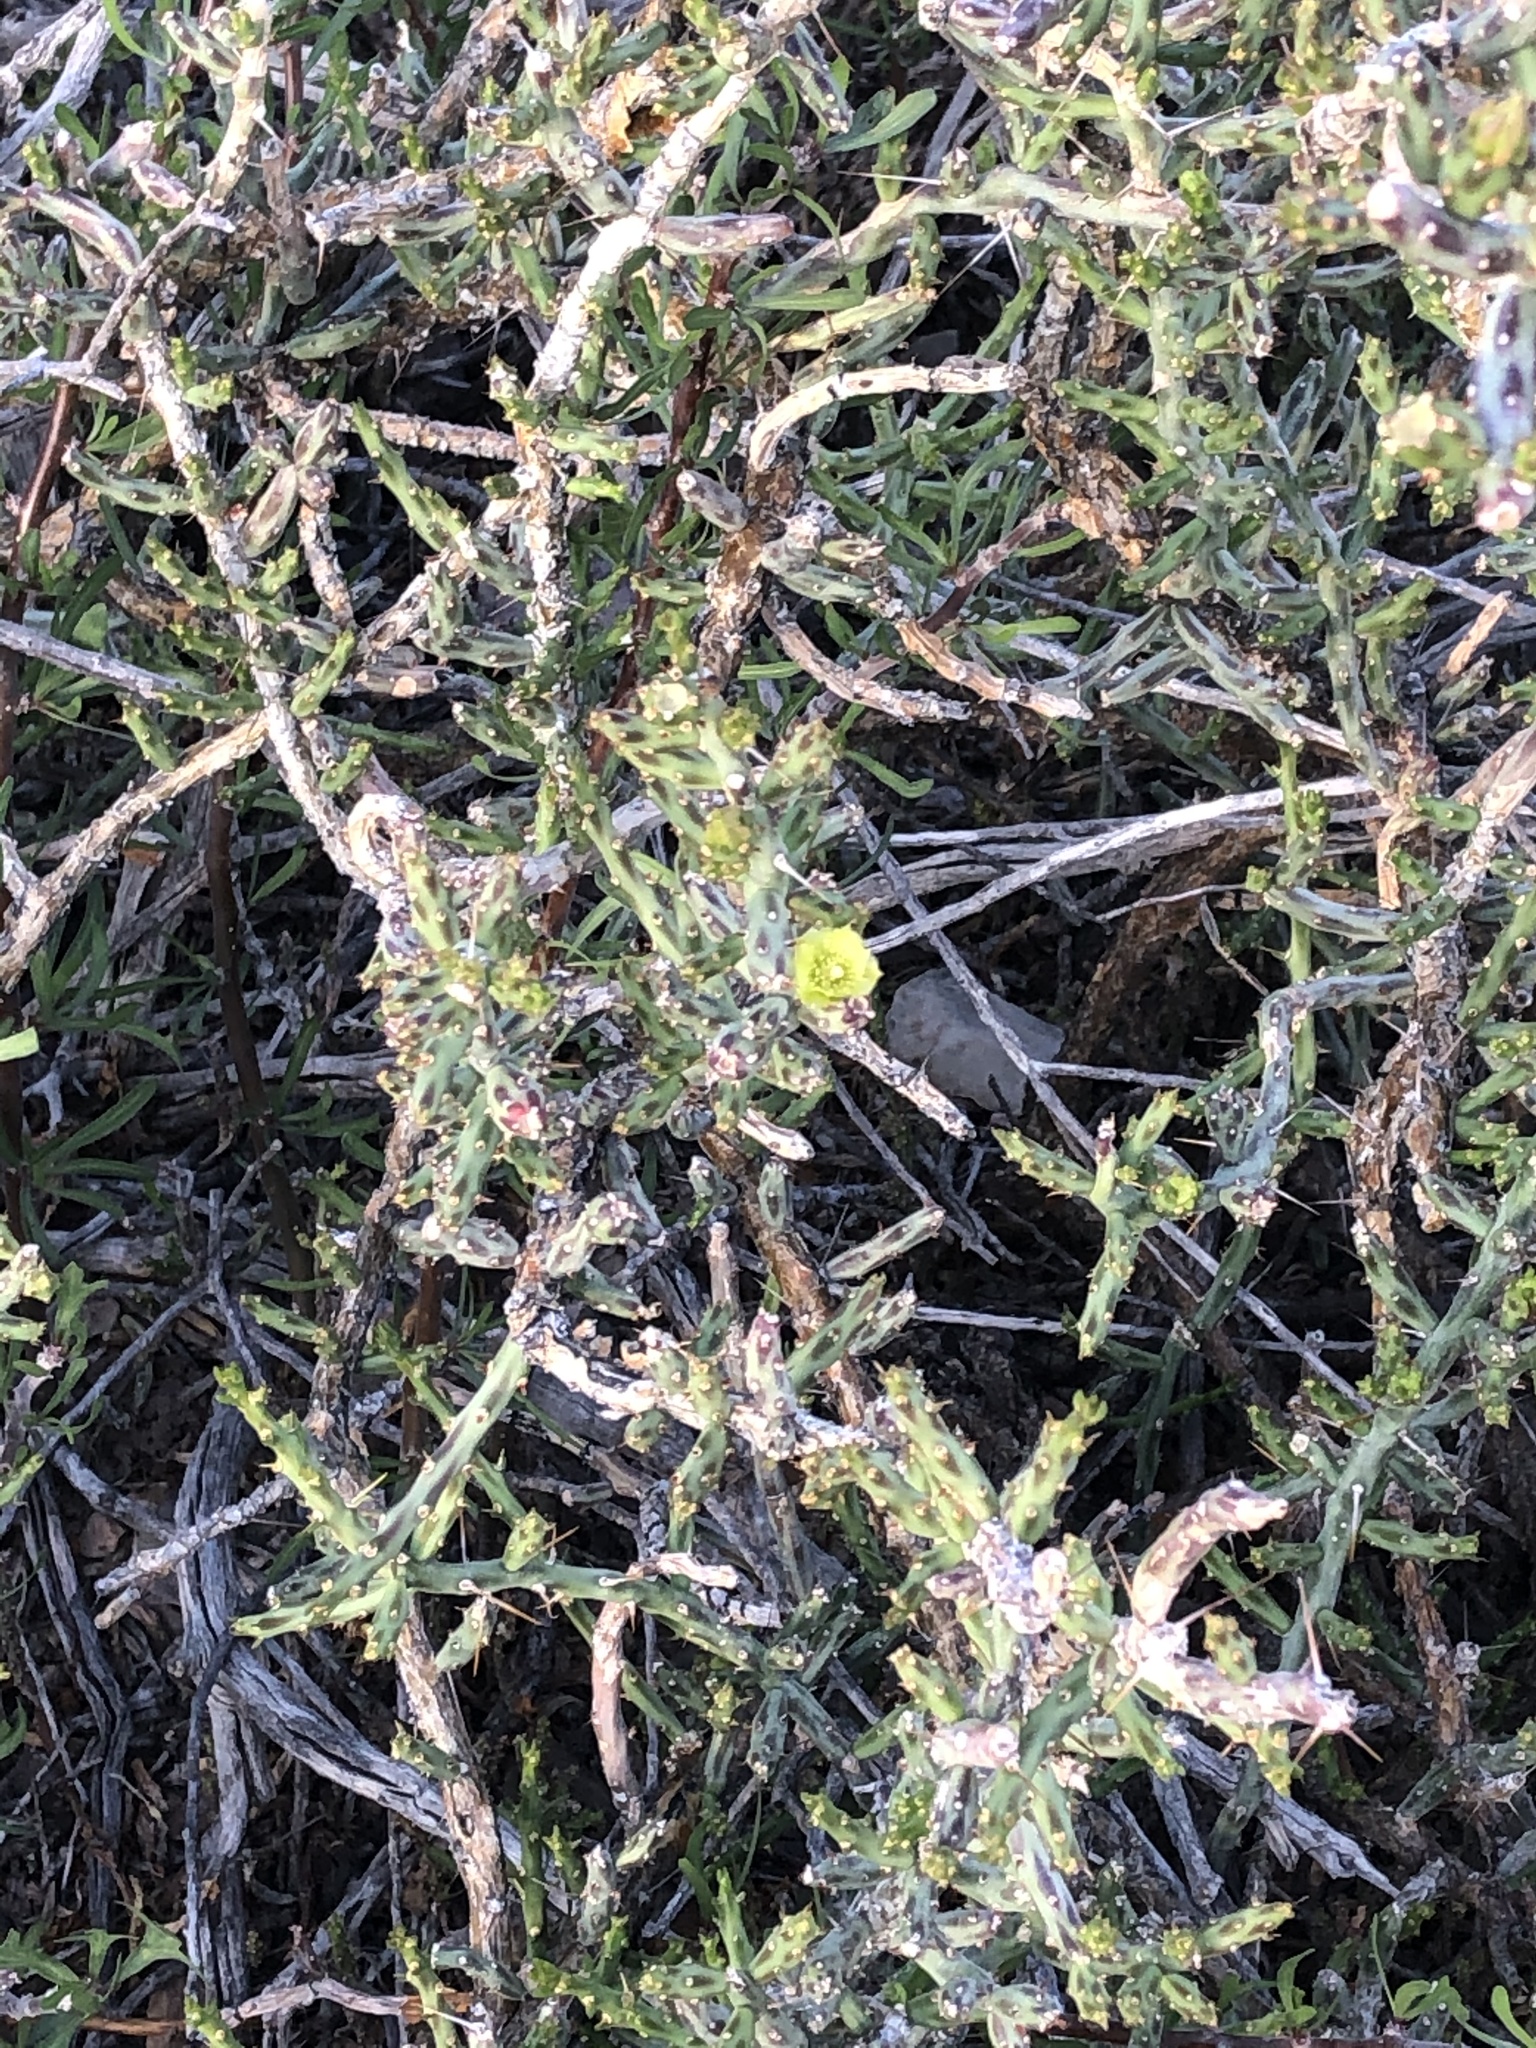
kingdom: Plantae
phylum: Tracheophyta
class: Magnoliopsida
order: Caryophyllales
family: Cactaceae
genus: Cylindropuntia
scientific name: Cylindropuntia leptocaulis
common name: Christmas cactus
